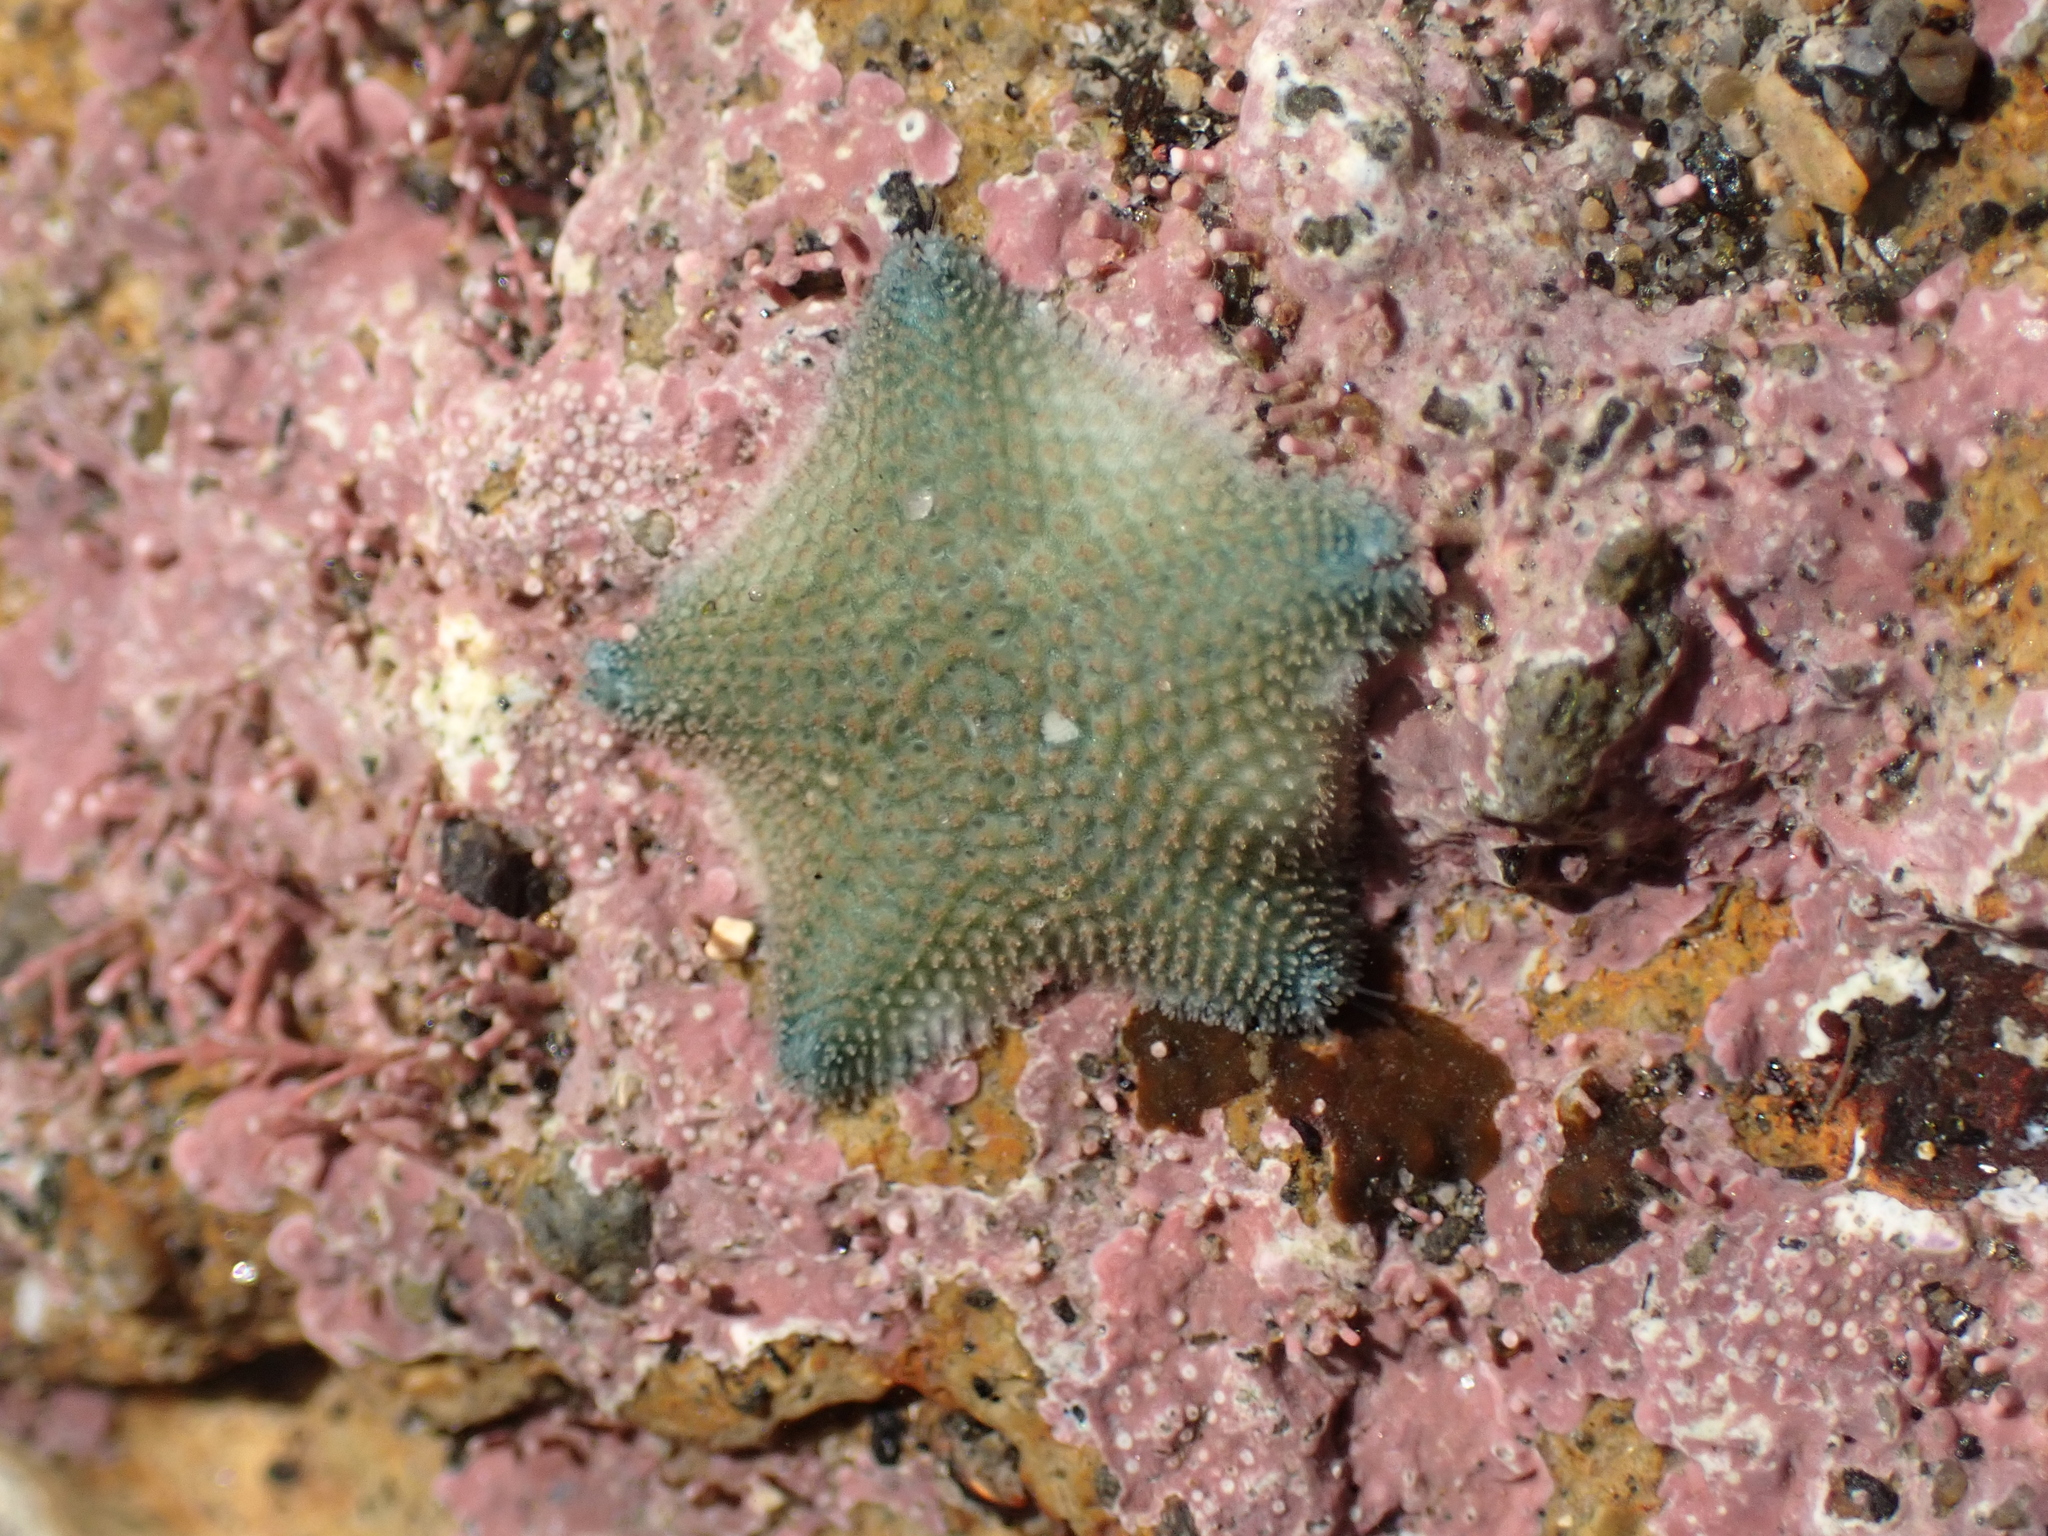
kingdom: Animalia
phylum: Echinodermata
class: Asteroidea
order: Valvatida
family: Asterinidae
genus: Patiriella
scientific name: Patiriella regularis
